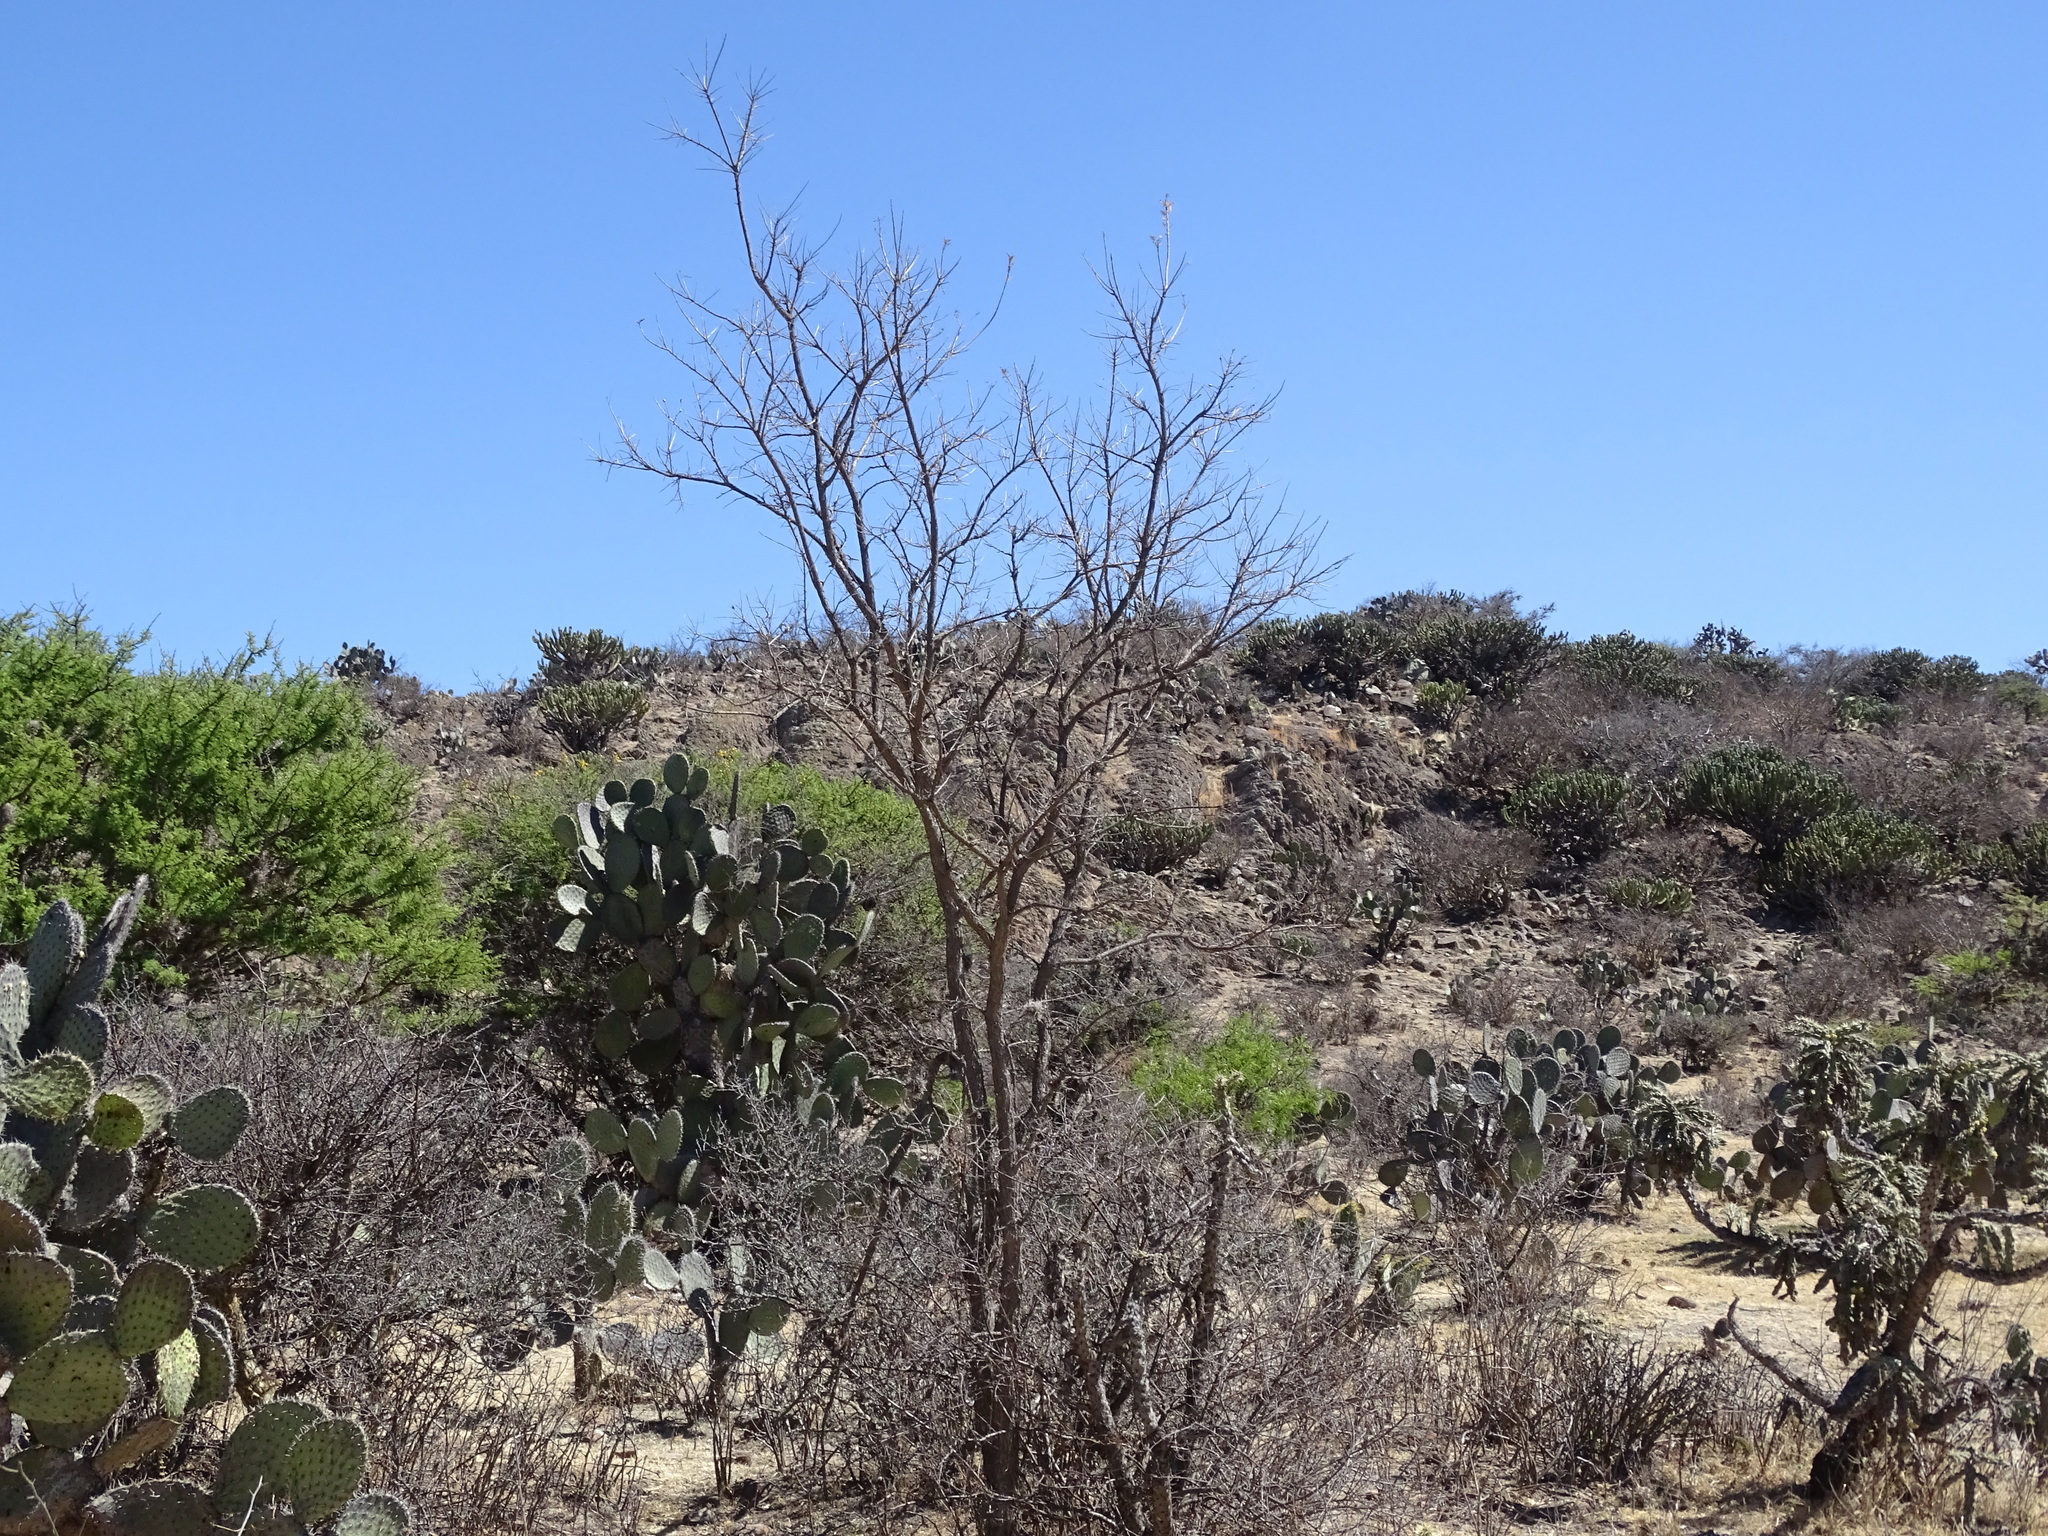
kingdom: Plantae
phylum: Tracheophyta
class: Magnoliopsida
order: Sapindales
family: Burseraceae
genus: Bursera
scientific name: Bursera cuneata
